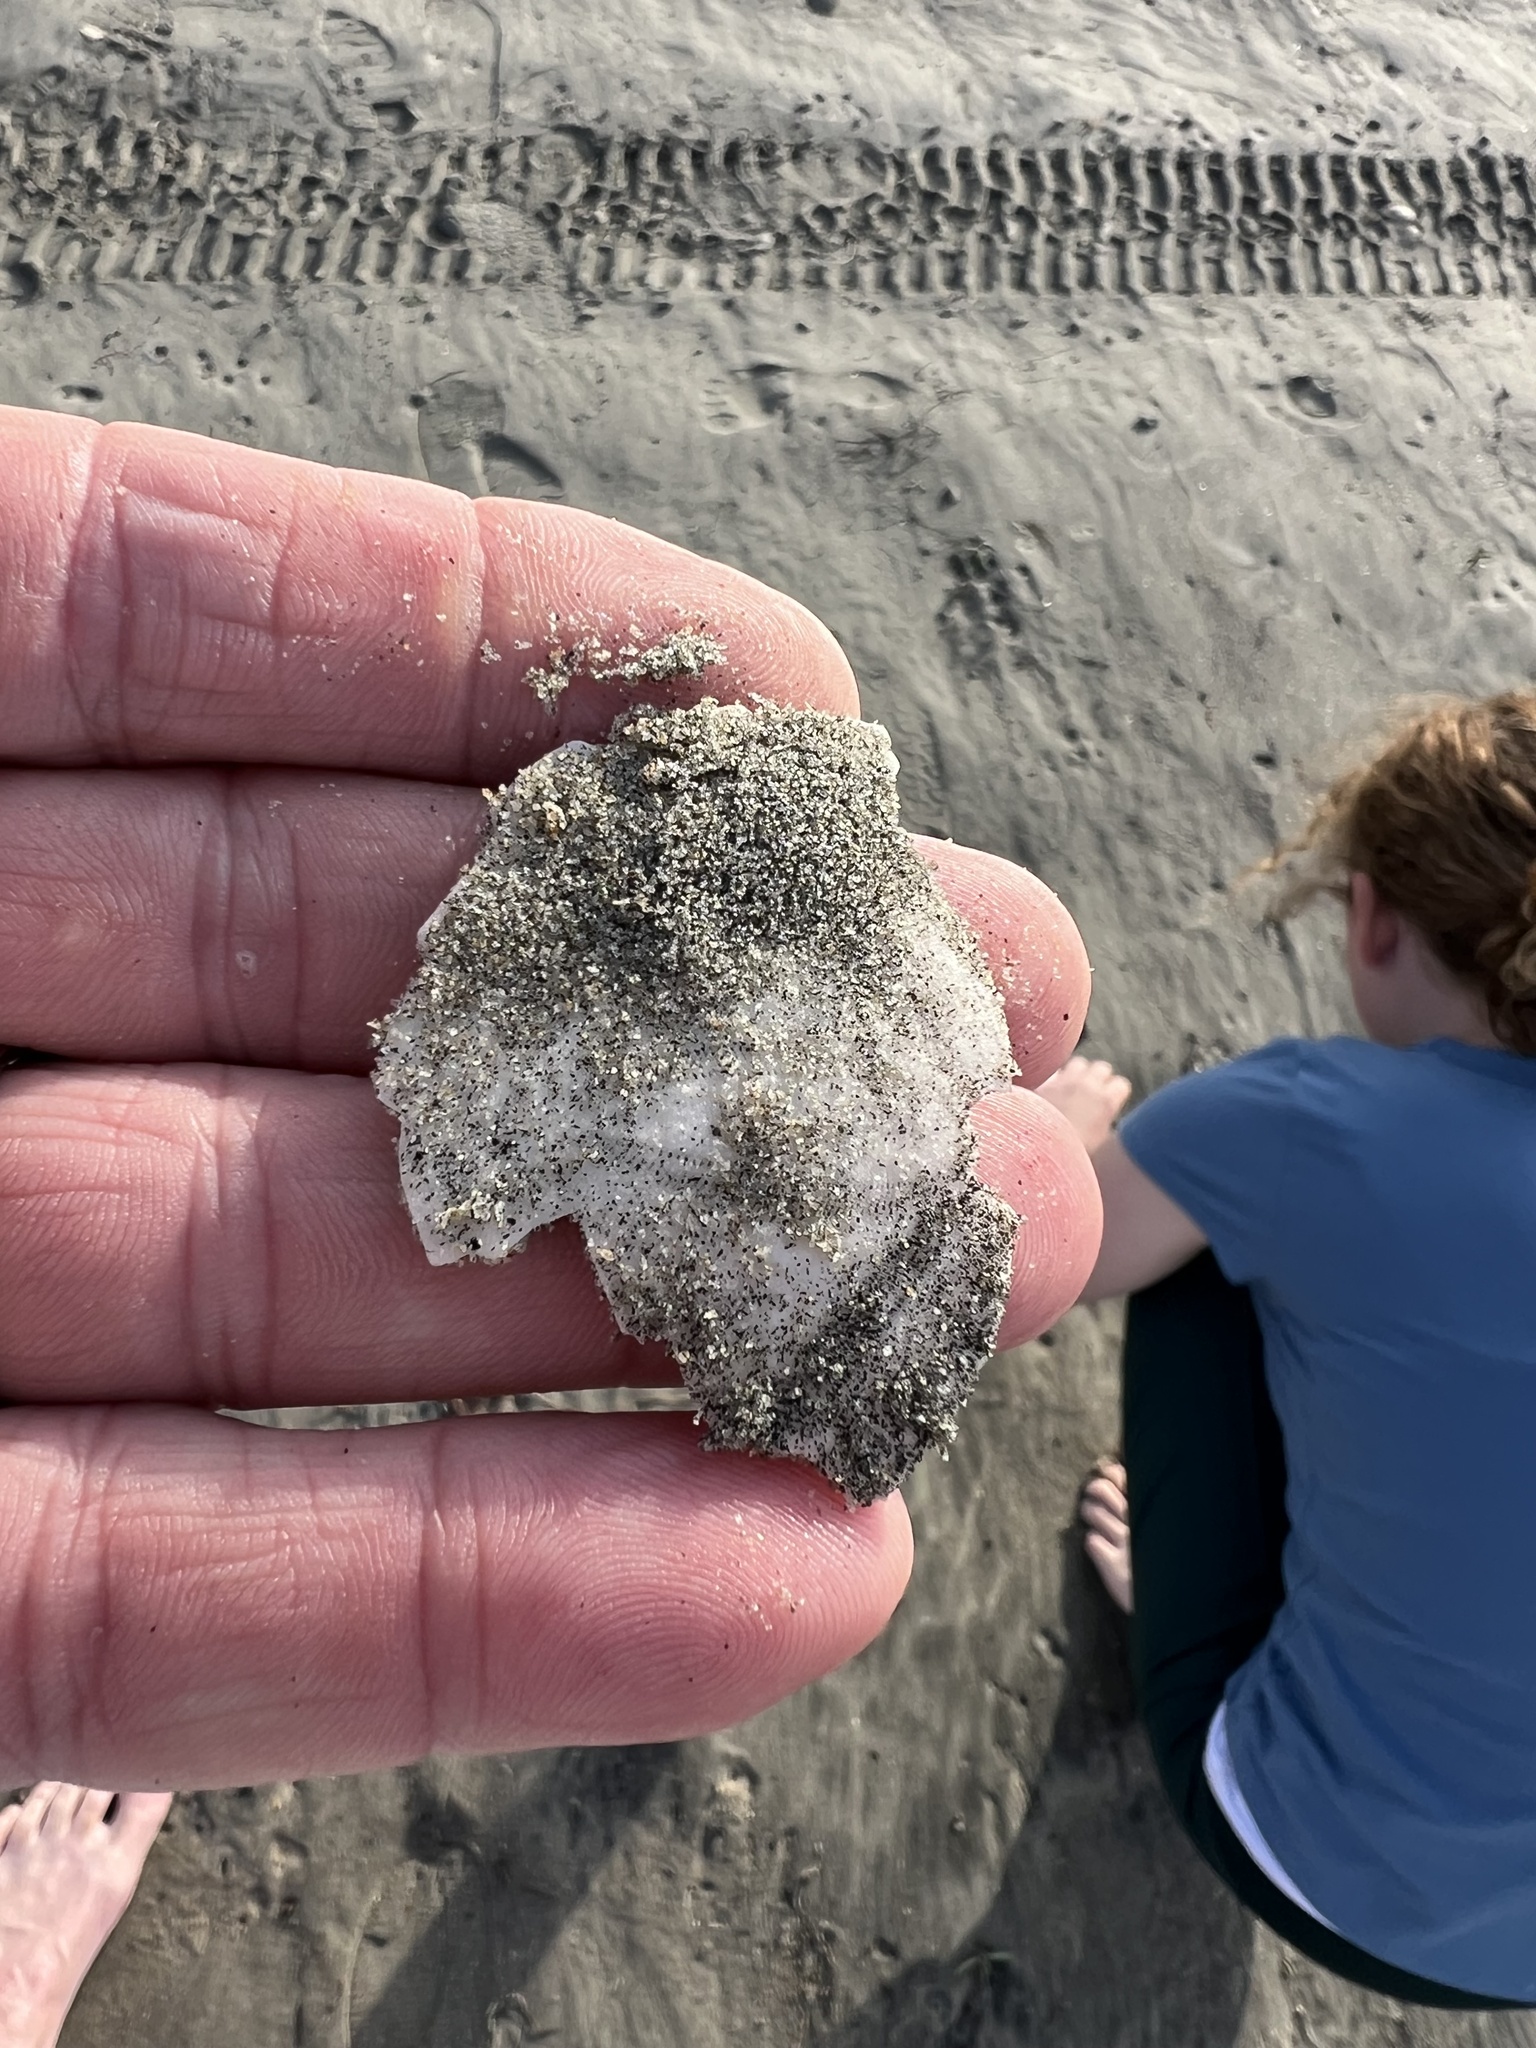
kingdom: Animalia
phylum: Echinodermata
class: Echinoidea
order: Echinolampadacea
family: Dendrasteridae
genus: Dendraster
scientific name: Dendraster excentricus
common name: Eccentric sand dollar sea urchin
